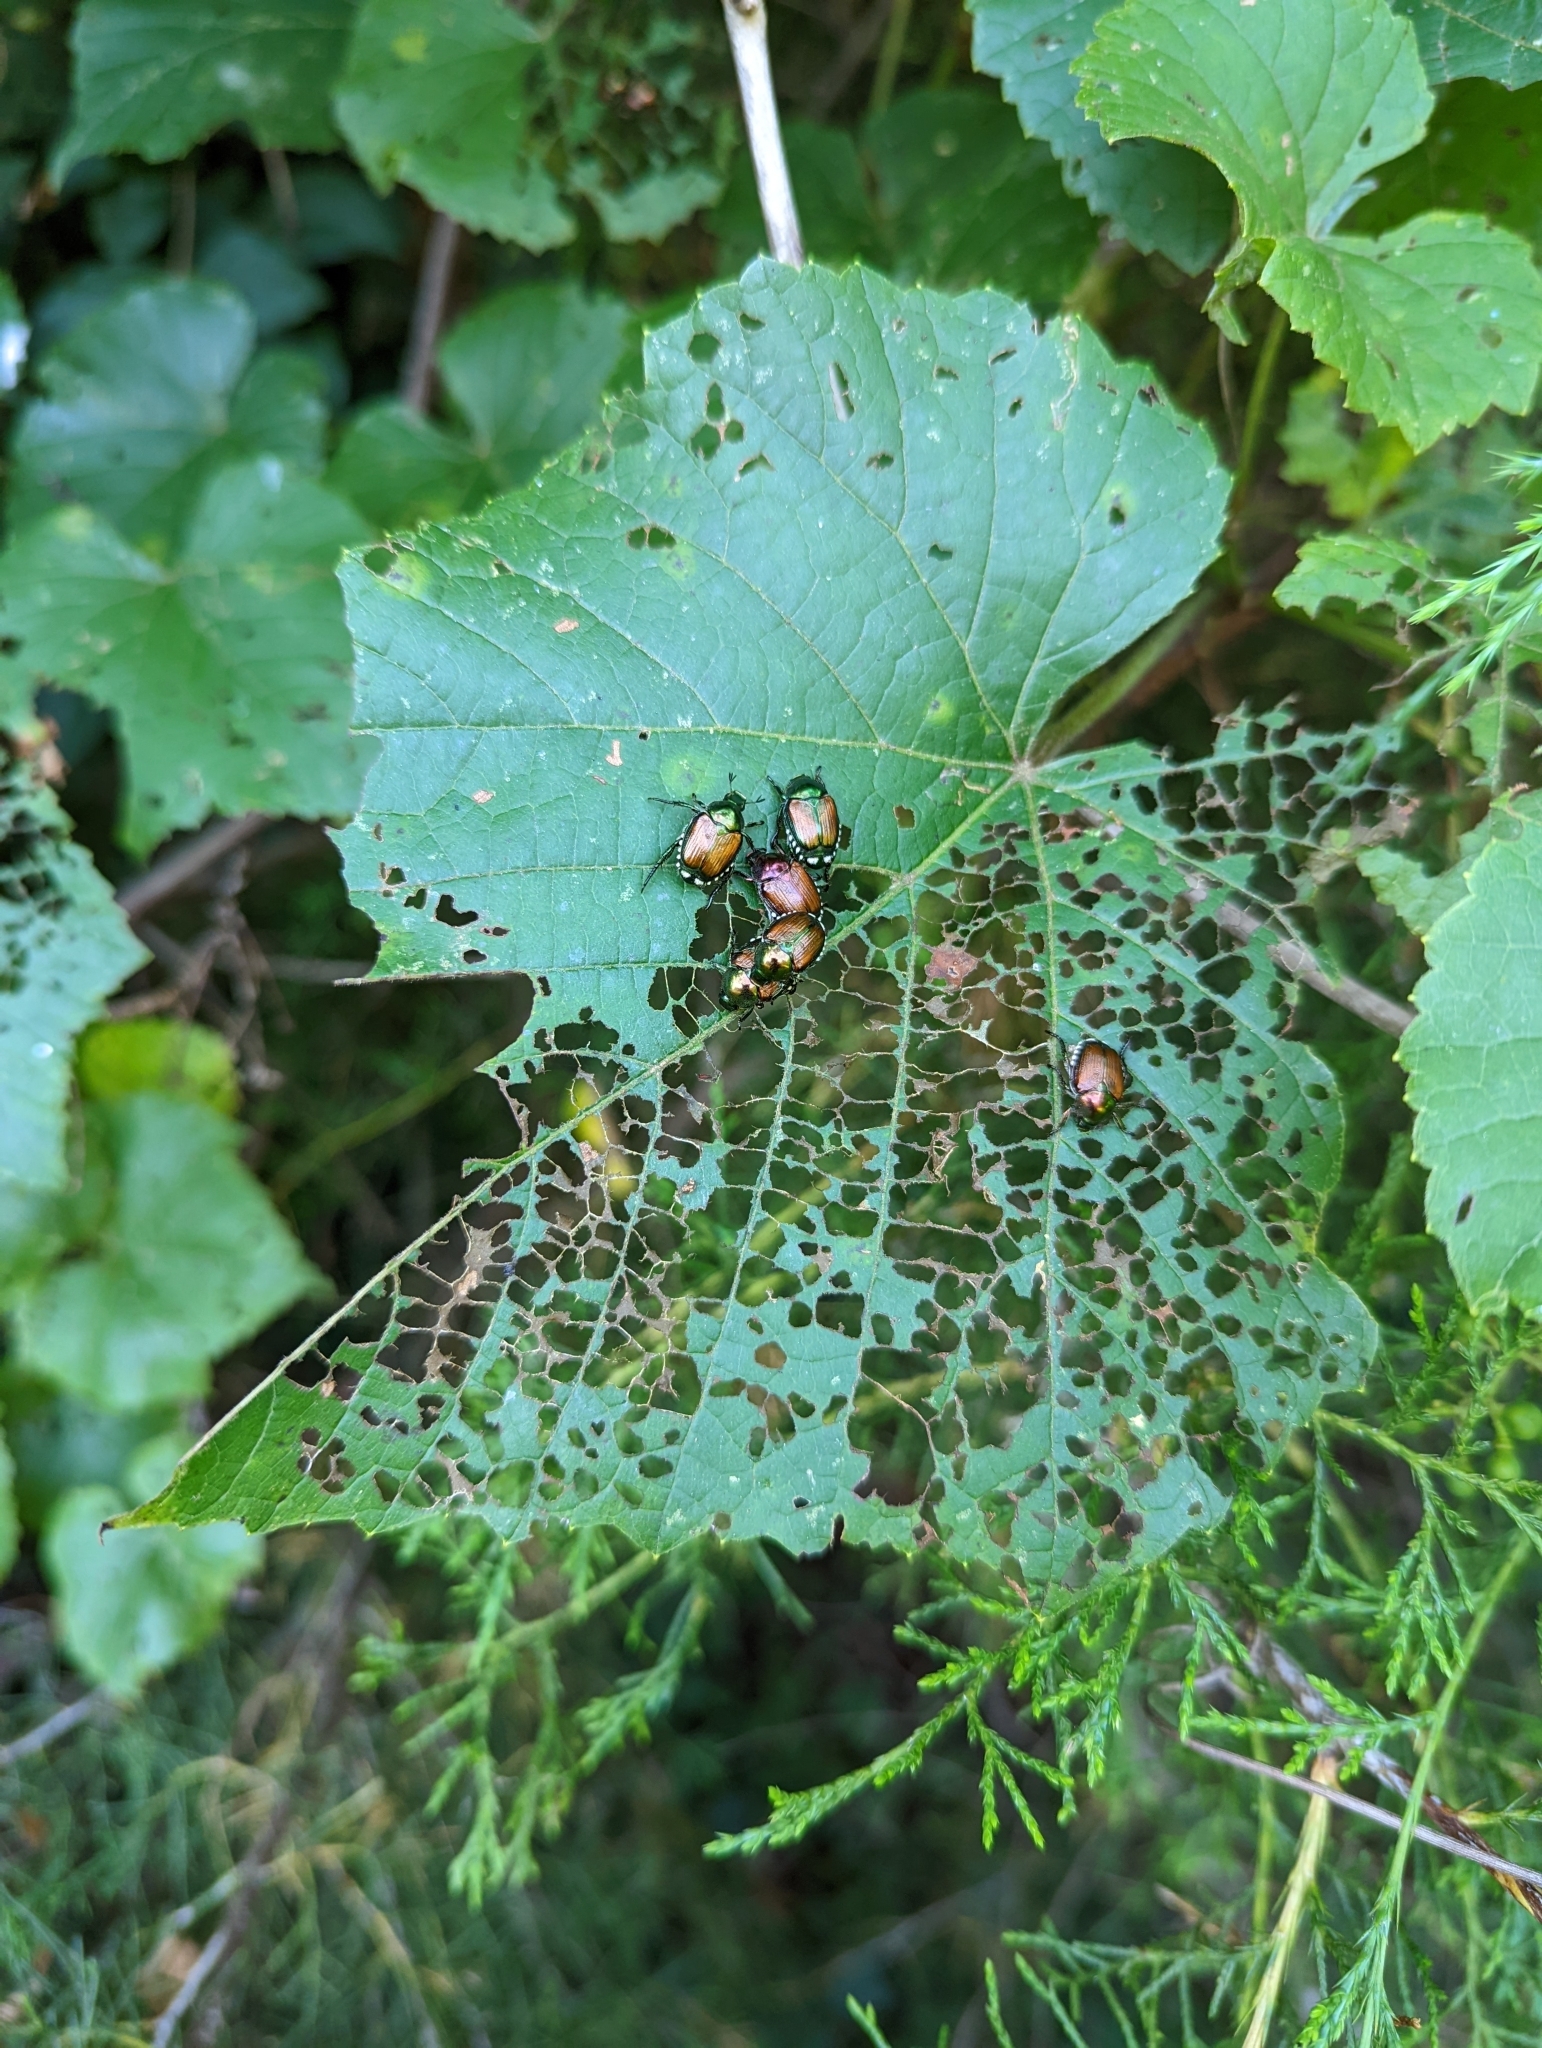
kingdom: Animalia
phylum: Arthropoda
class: Insecta
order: Coleoptera
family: Scarabaeidae
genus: Popillia
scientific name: Popillia japonica
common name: Japanese beetle
